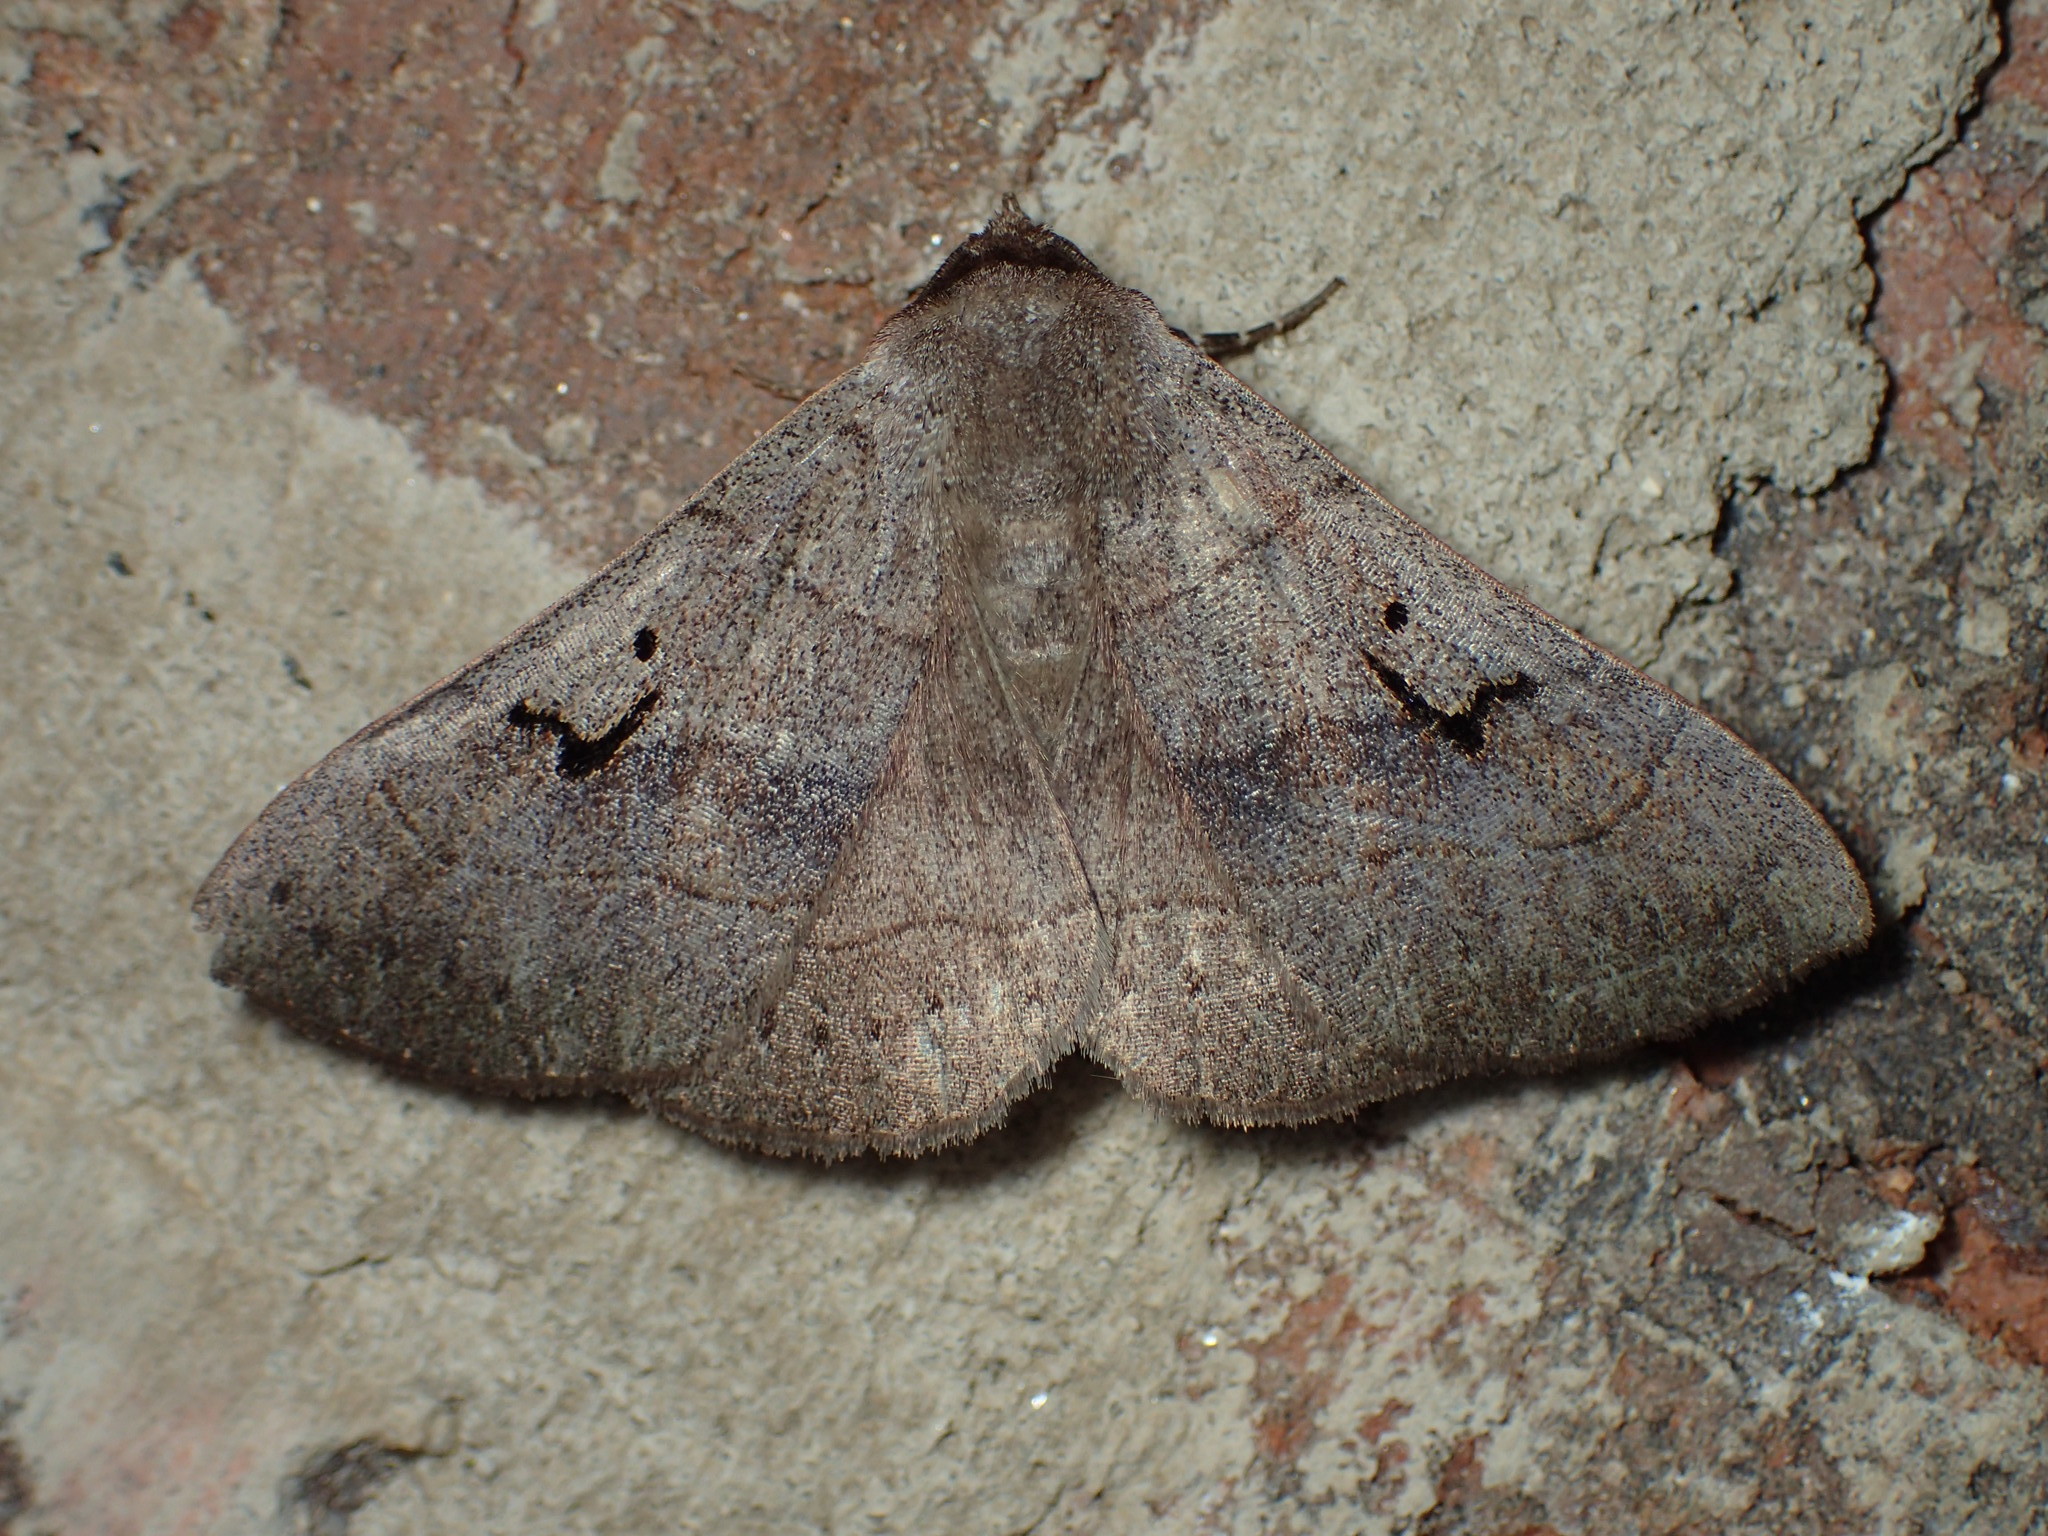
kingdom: Animalia
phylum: Arthropoda
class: Insecta
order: Lepidoptera
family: Erebidae
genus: Panopoda
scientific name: Panopoda carneicosta
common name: Brown panopoda moth
